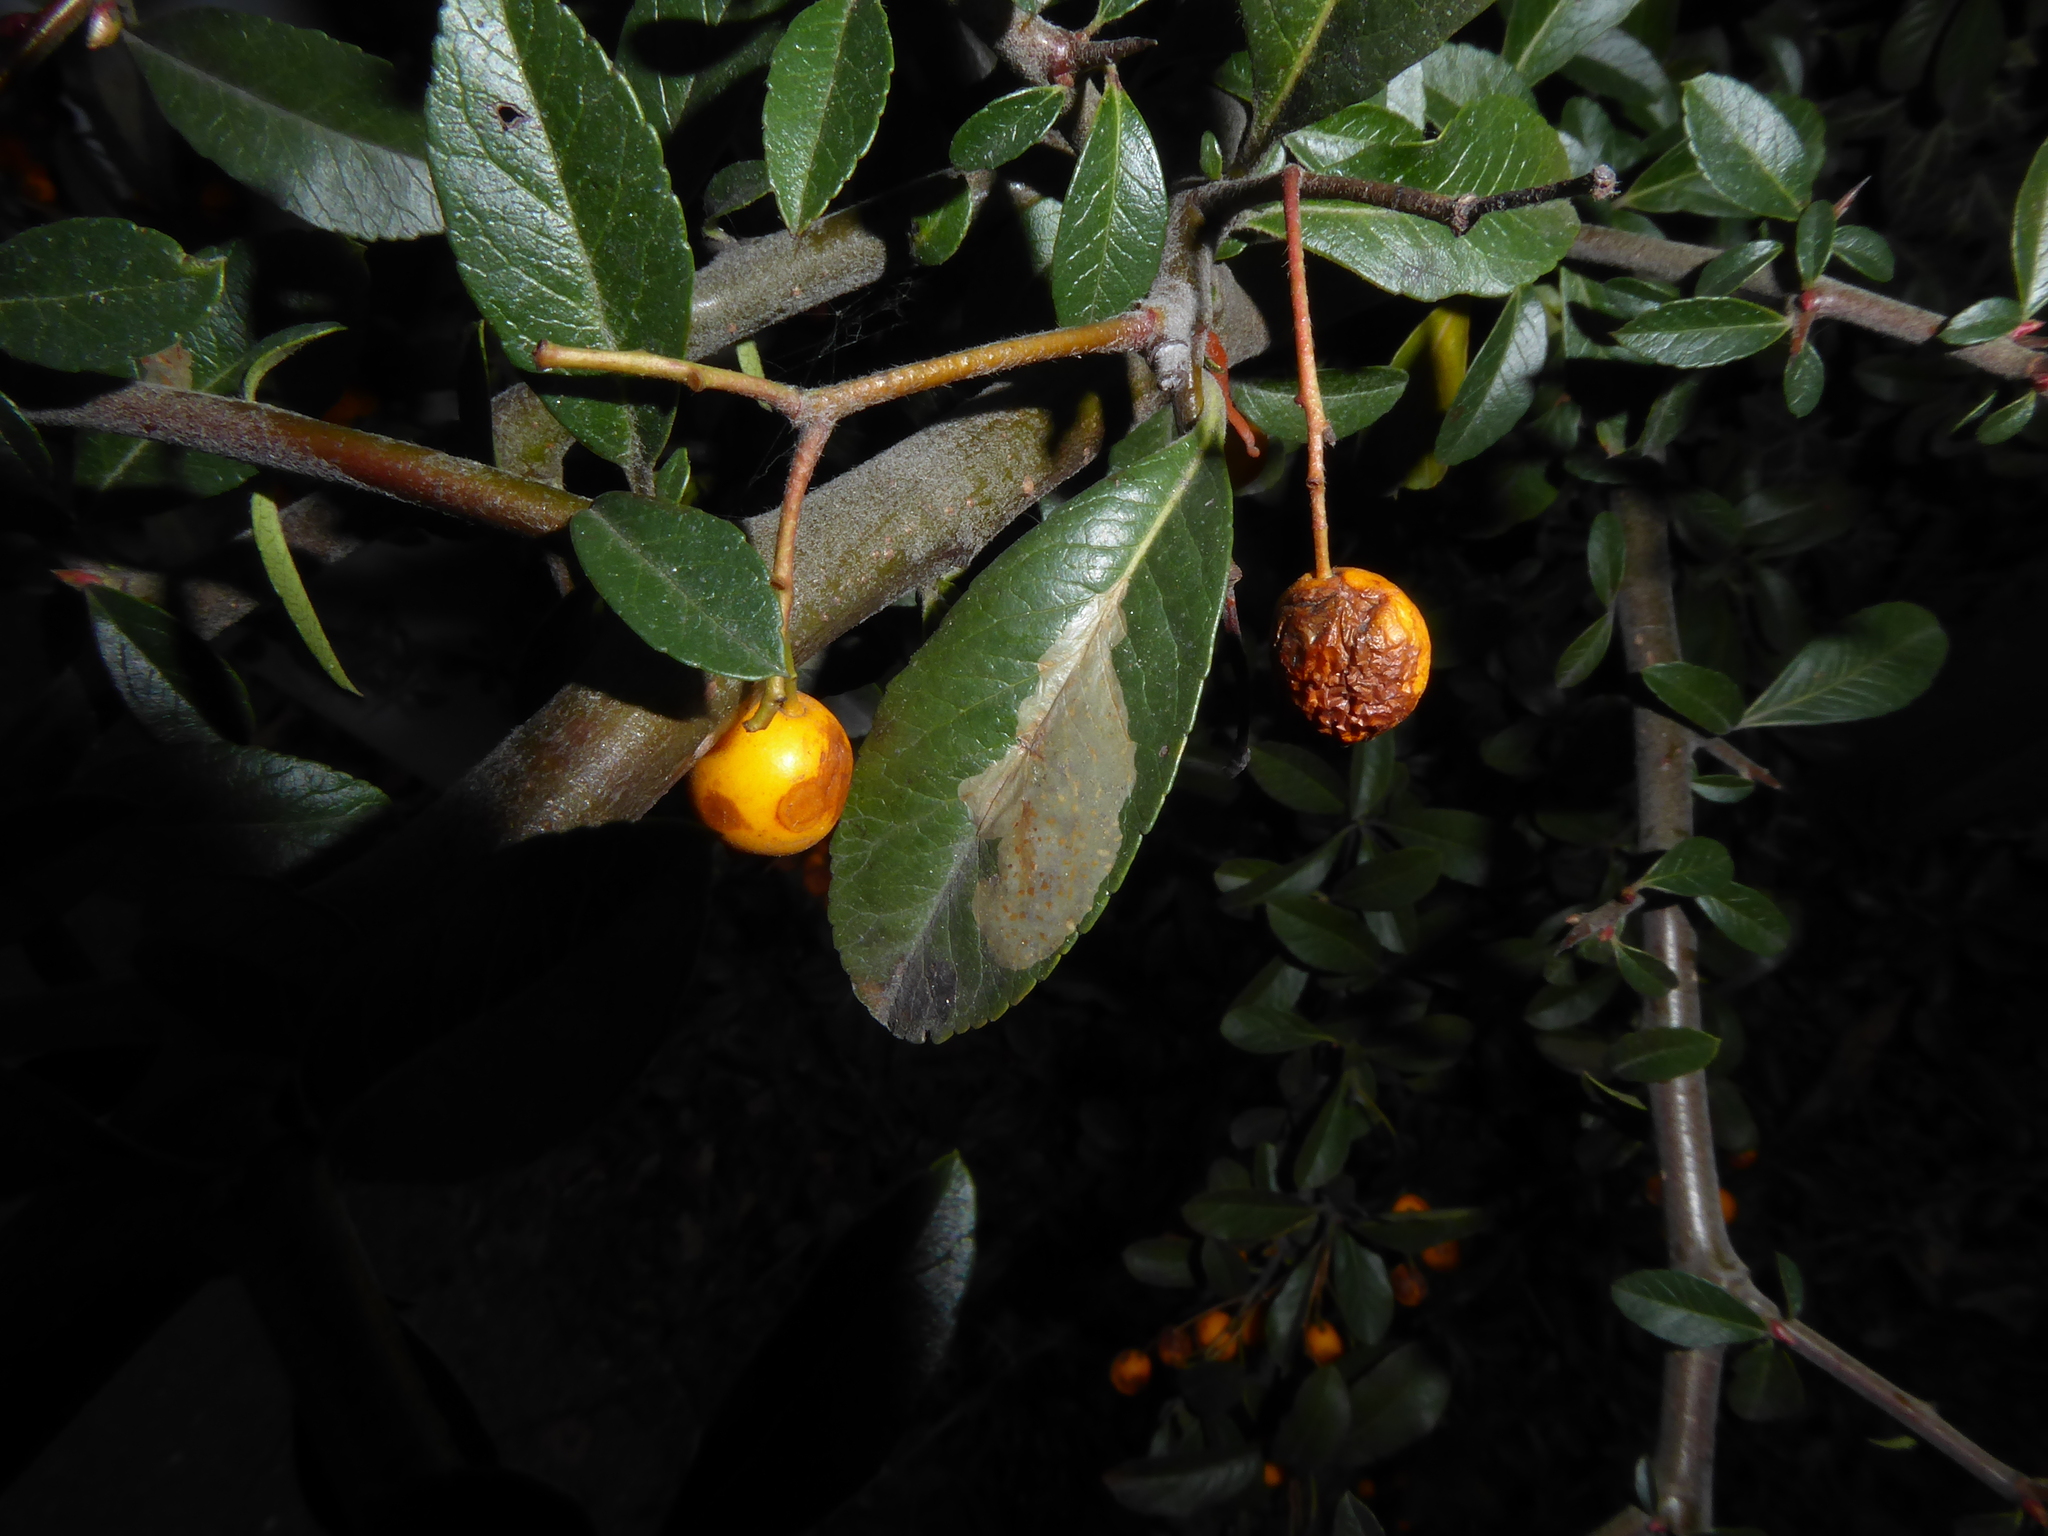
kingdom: Animalia
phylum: Arthropoda
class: Insecta
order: Lepidoptera
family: Gracillariidae
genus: Phyllonorycter
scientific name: Phyllonorycter leucographella
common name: Firethorn leaf-miner
